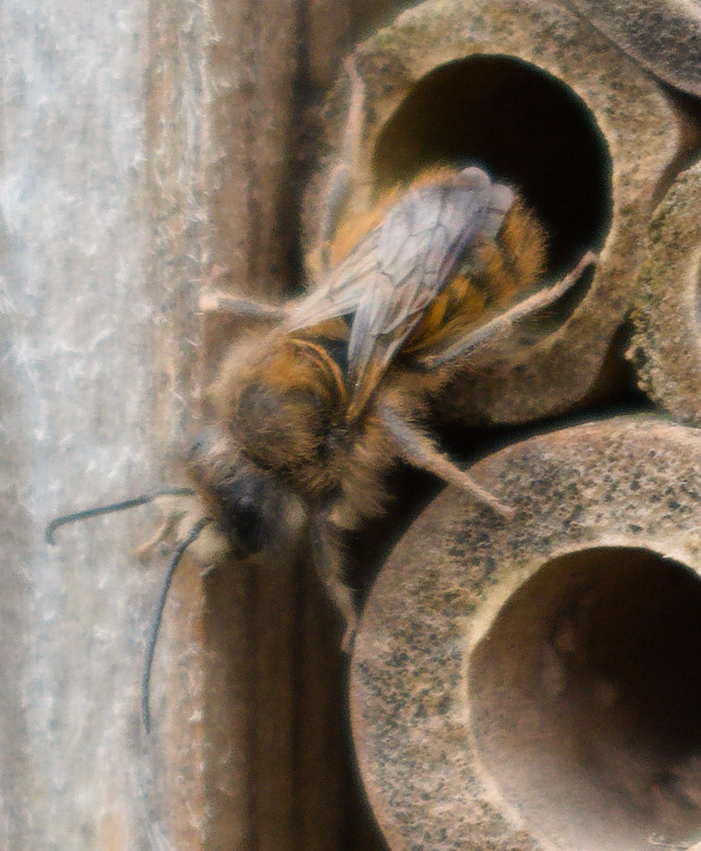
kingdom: Animalia
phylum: Arthropoda
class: Insecta
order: Hymenoptera
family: Megachilidae
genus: Osmia
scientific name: Osmia bicornis
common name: Red mason bee
